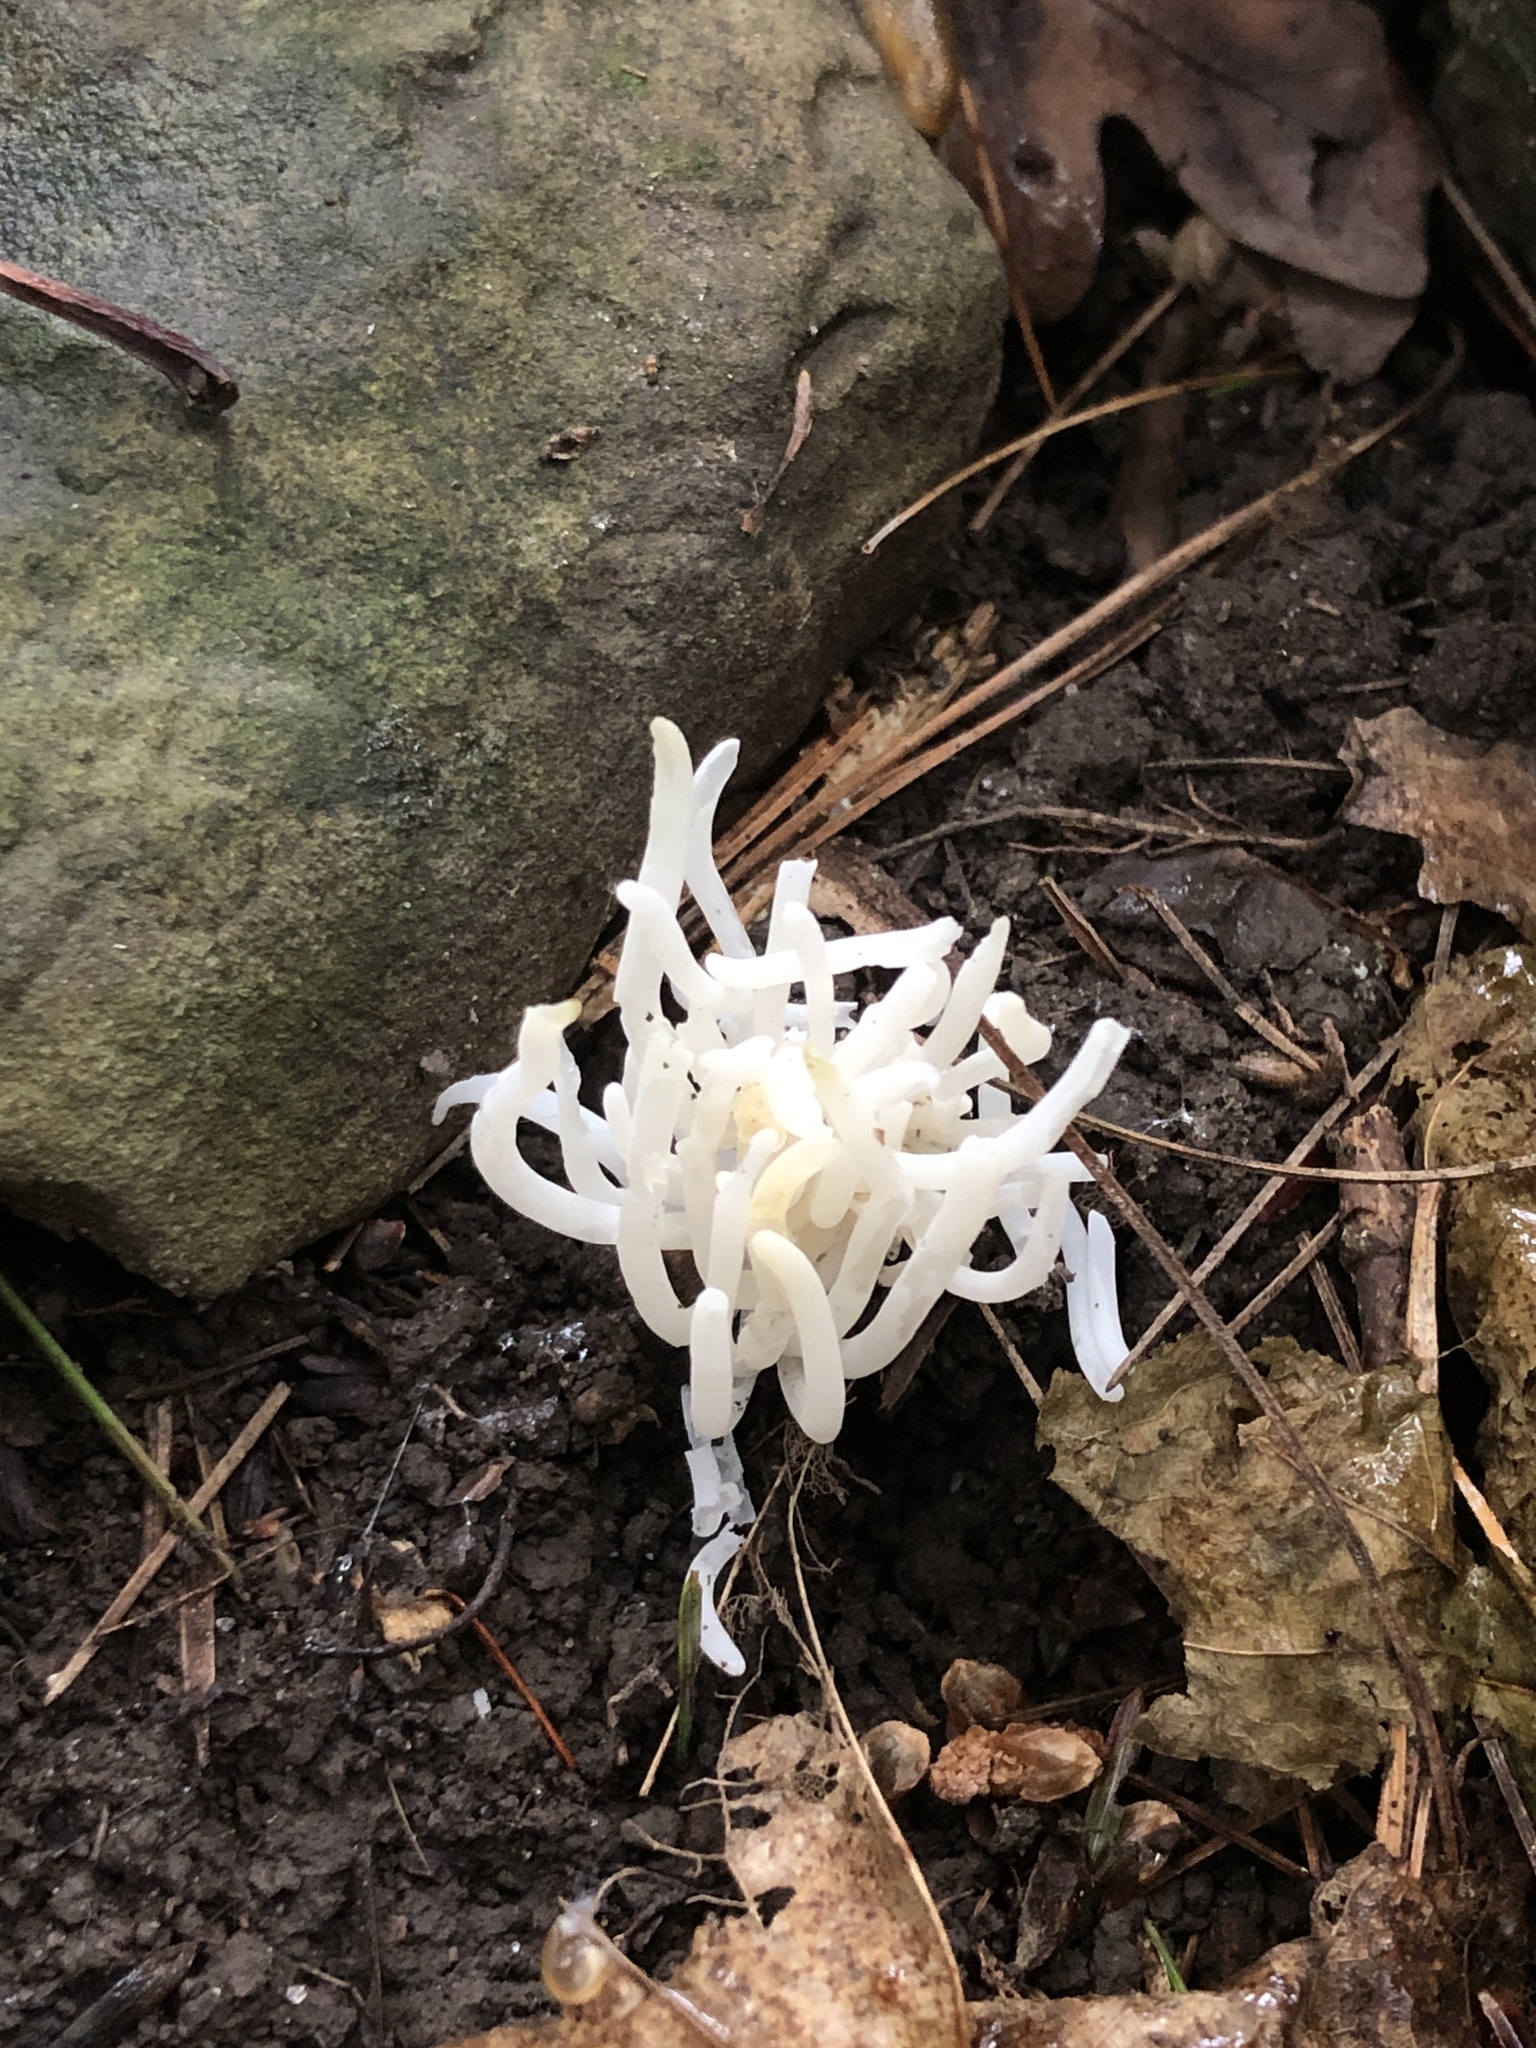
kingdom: Fungi
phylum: Basidiomycota
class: Agaricomycetes
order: Agaricales
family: Clavariaceae
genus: Clavaria
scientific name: Clavaria fragilis
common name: White spindles
